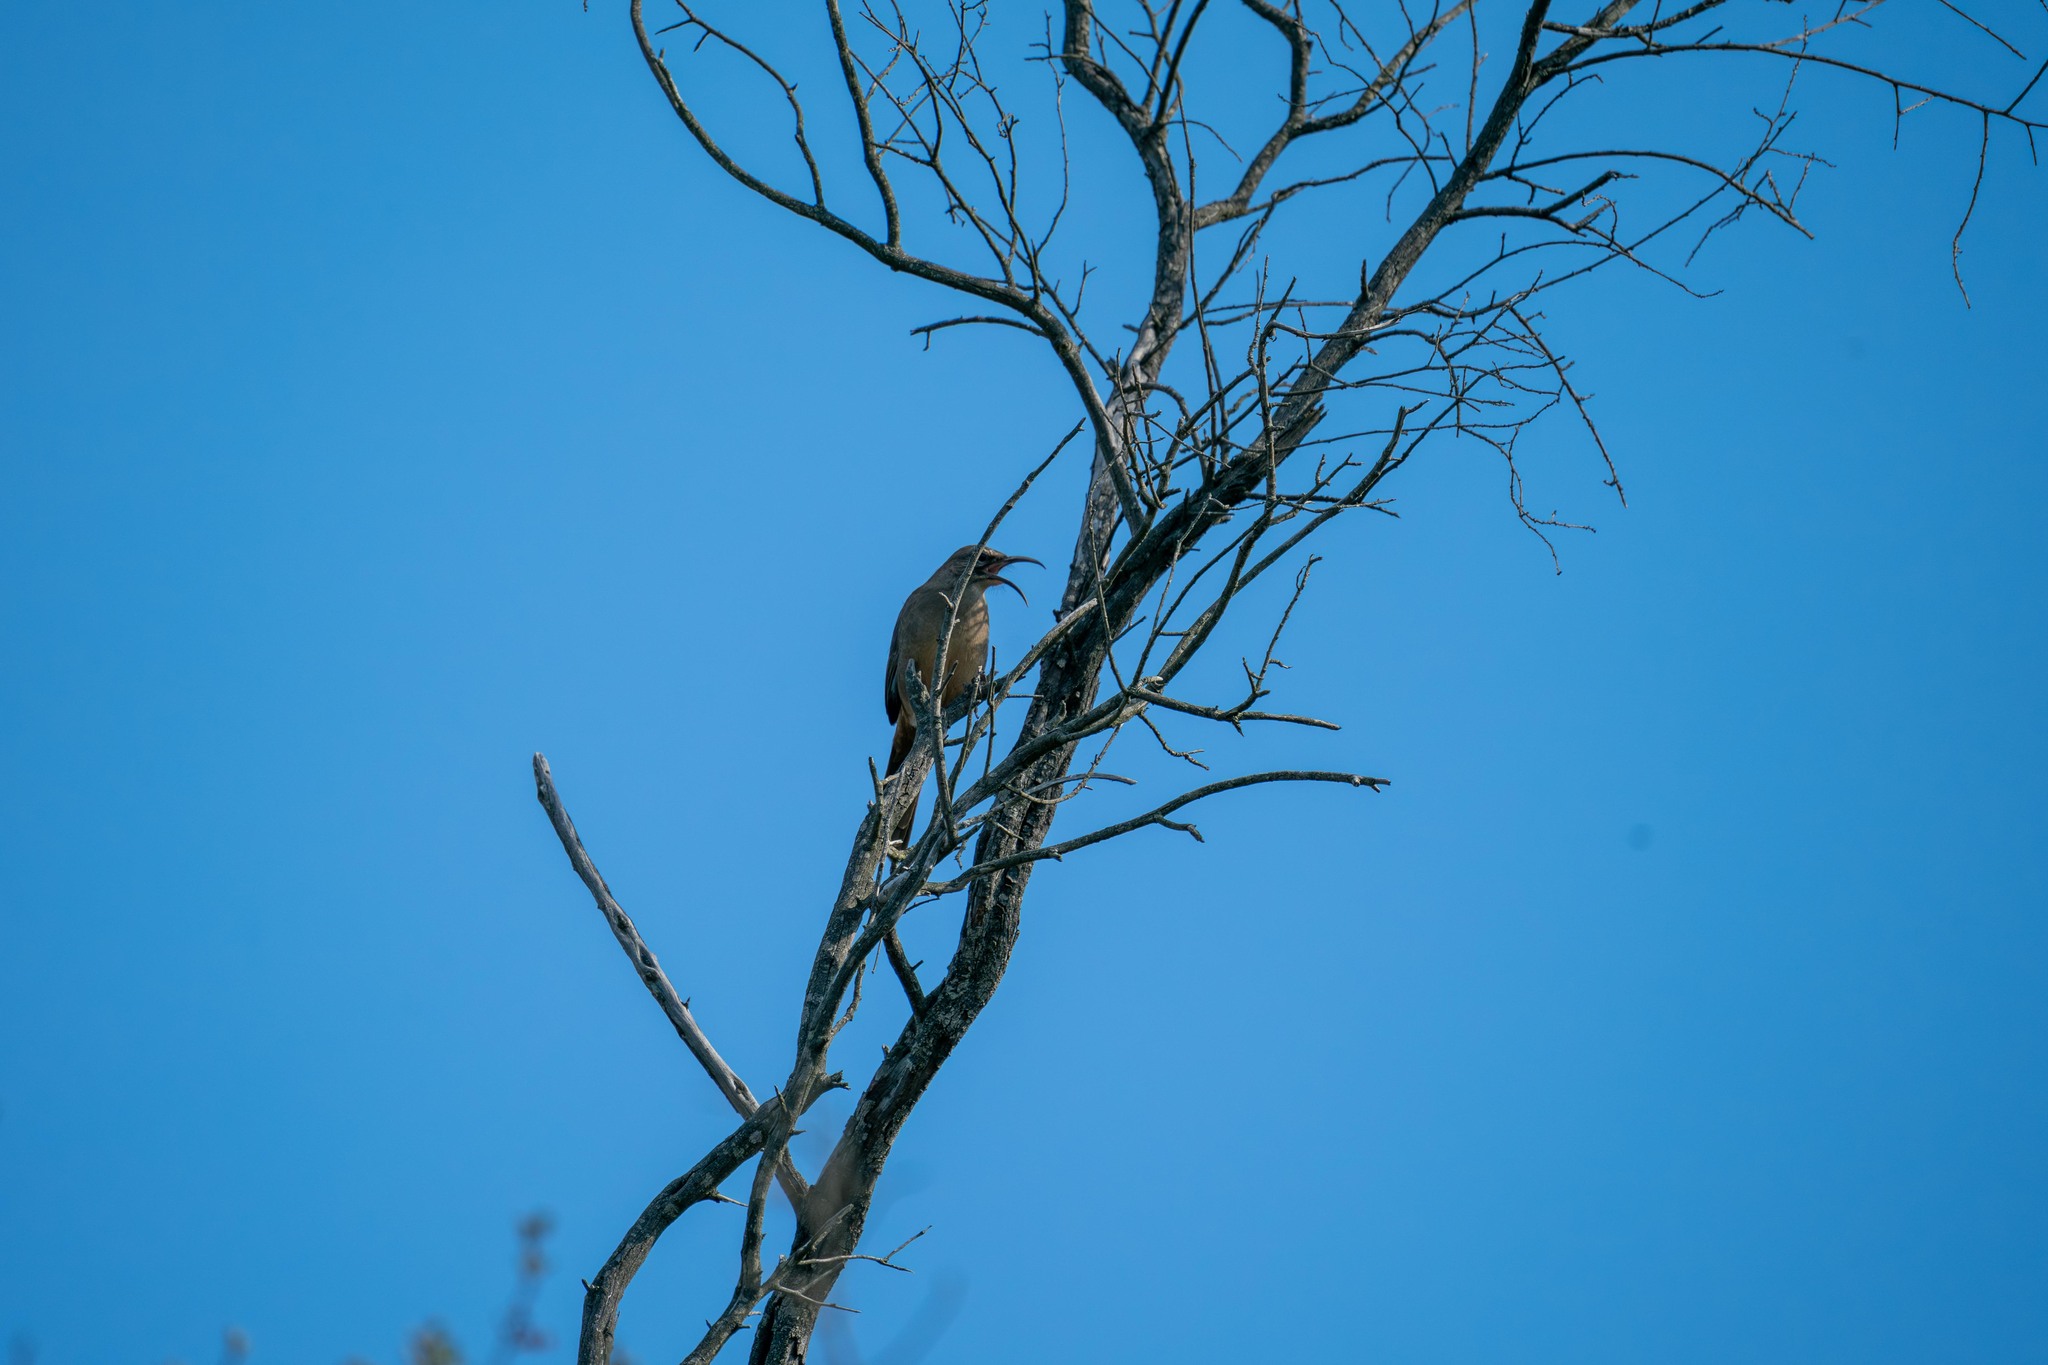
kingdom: Animalia
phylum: Chordata
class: Aves
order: Passeriformes
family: Mimidae
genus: Toxostoma
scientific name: Toxostoma redivivum
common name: California thrasher
